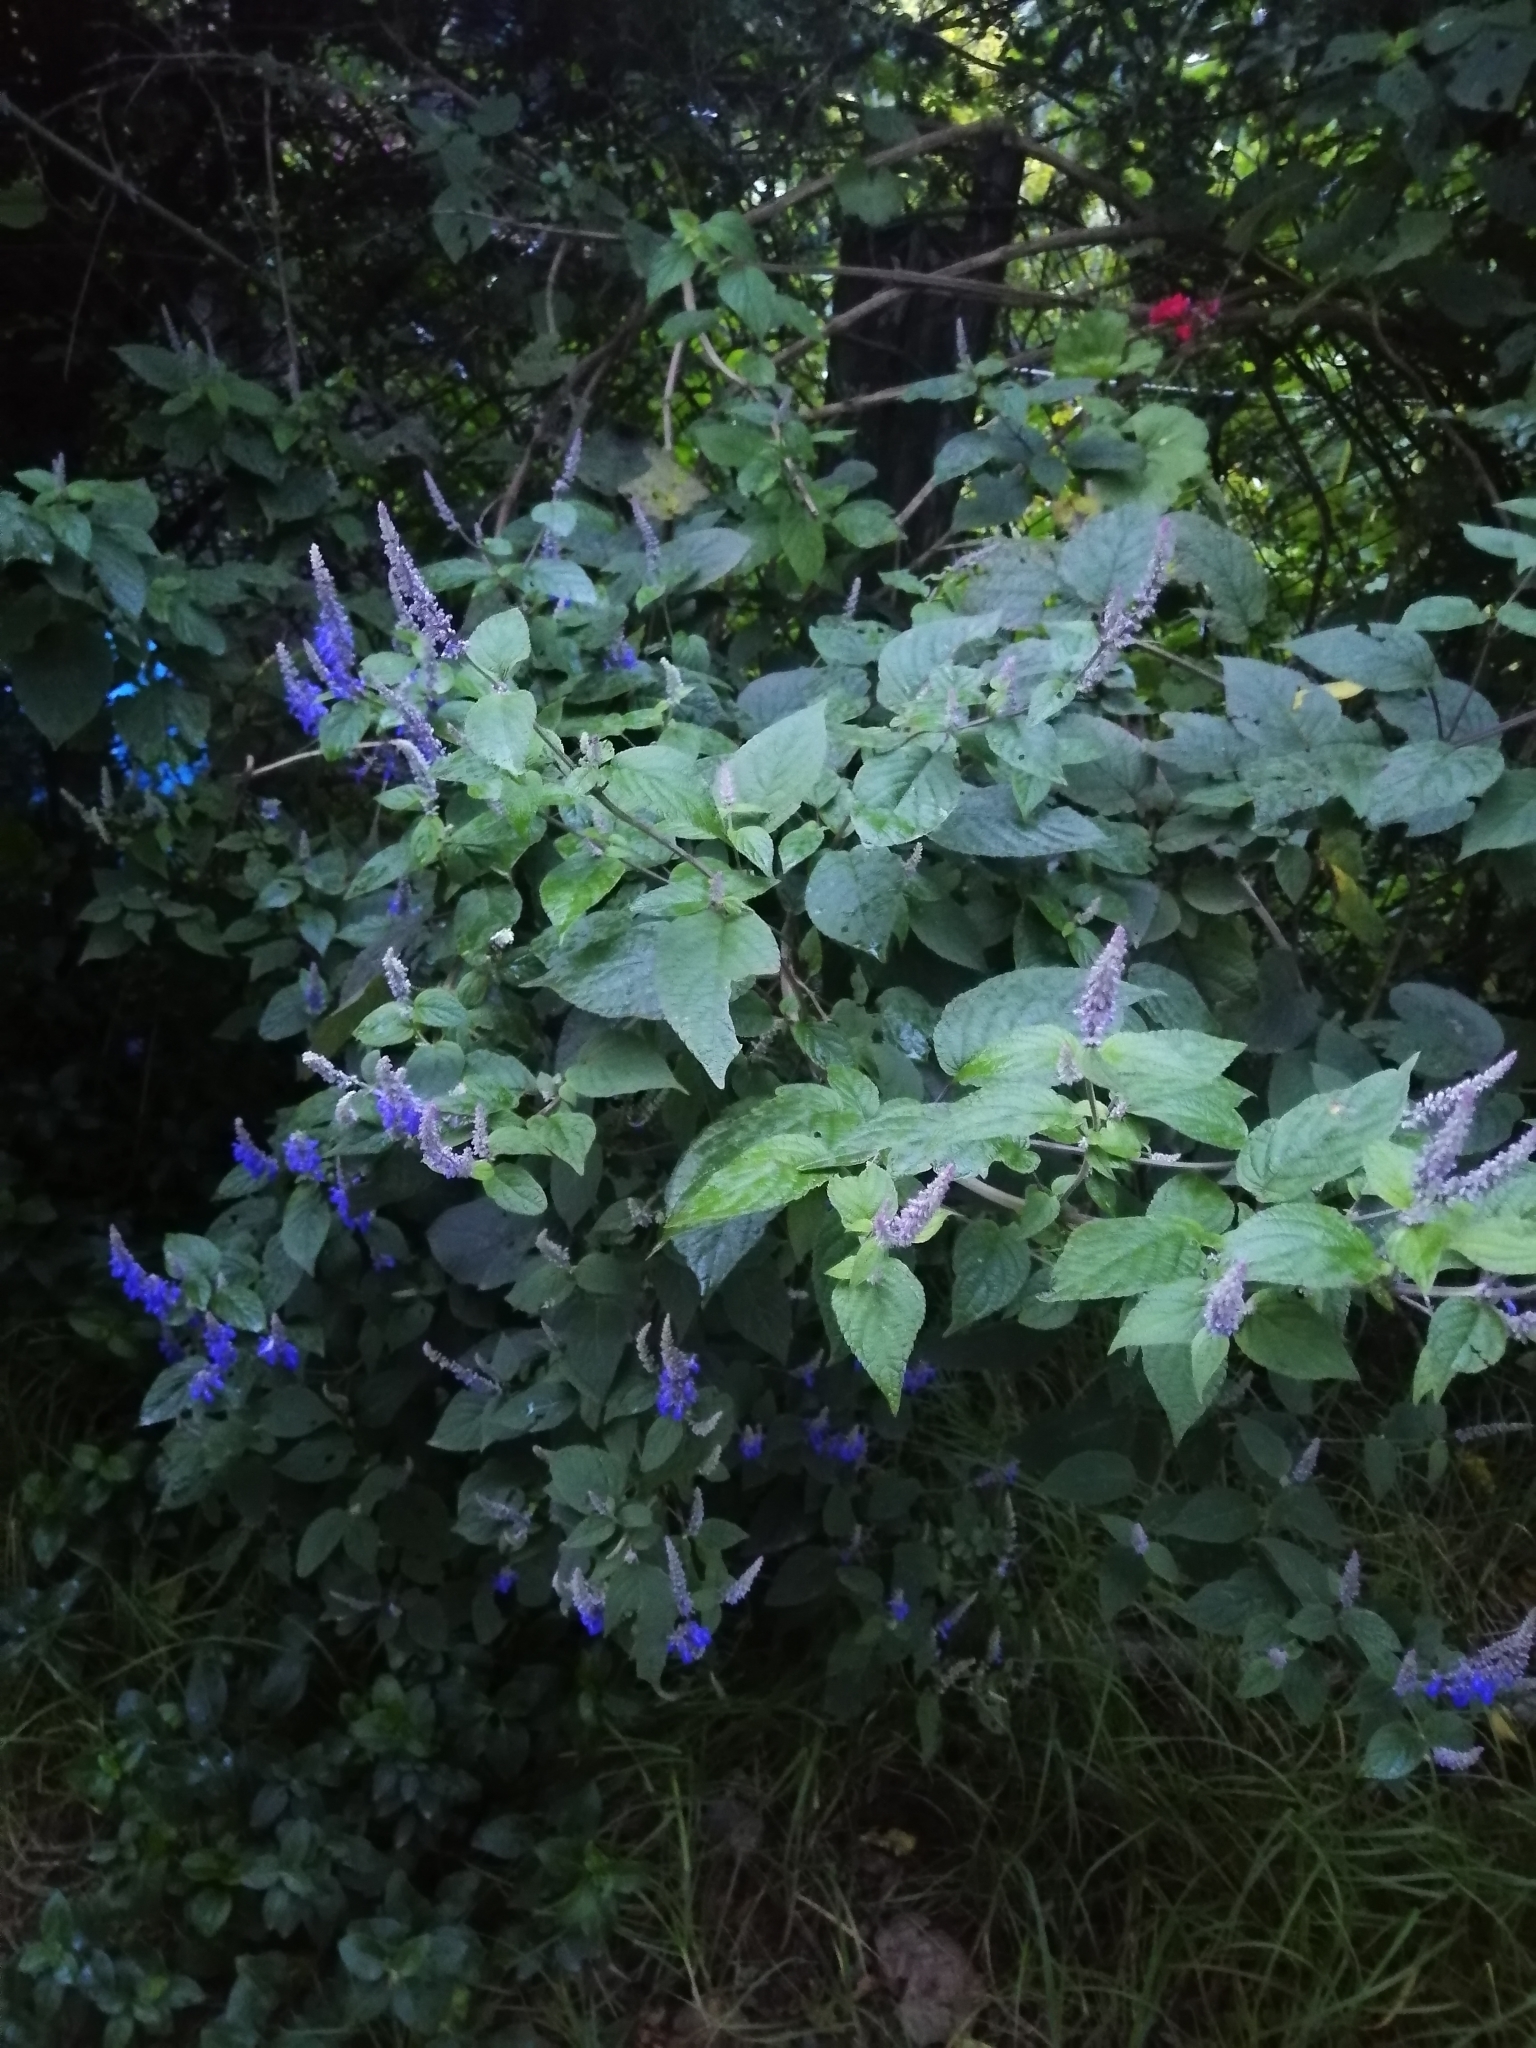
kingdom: Plantae
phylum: Tracheophyta
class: Magnoliopsida
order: Lamiales
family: Lamiaceae
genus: Salvia
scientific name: Salvia polystachia
